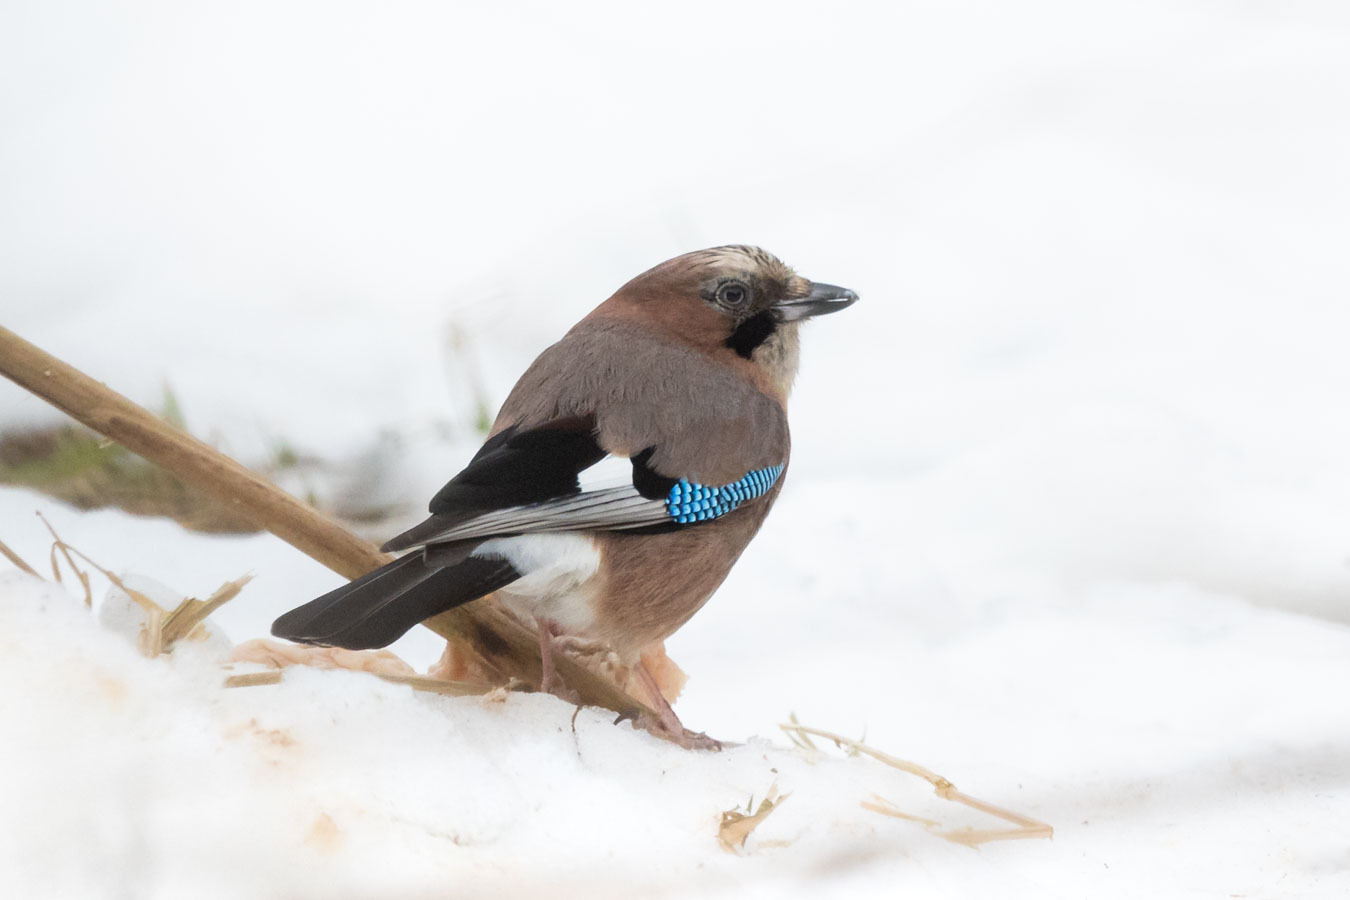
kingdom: Animalia
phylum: Chordata
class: Aves
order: Passeriformes
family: Corvidae
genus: Garrulus
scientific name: Garrulus glandarius
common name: Eurasian jay
